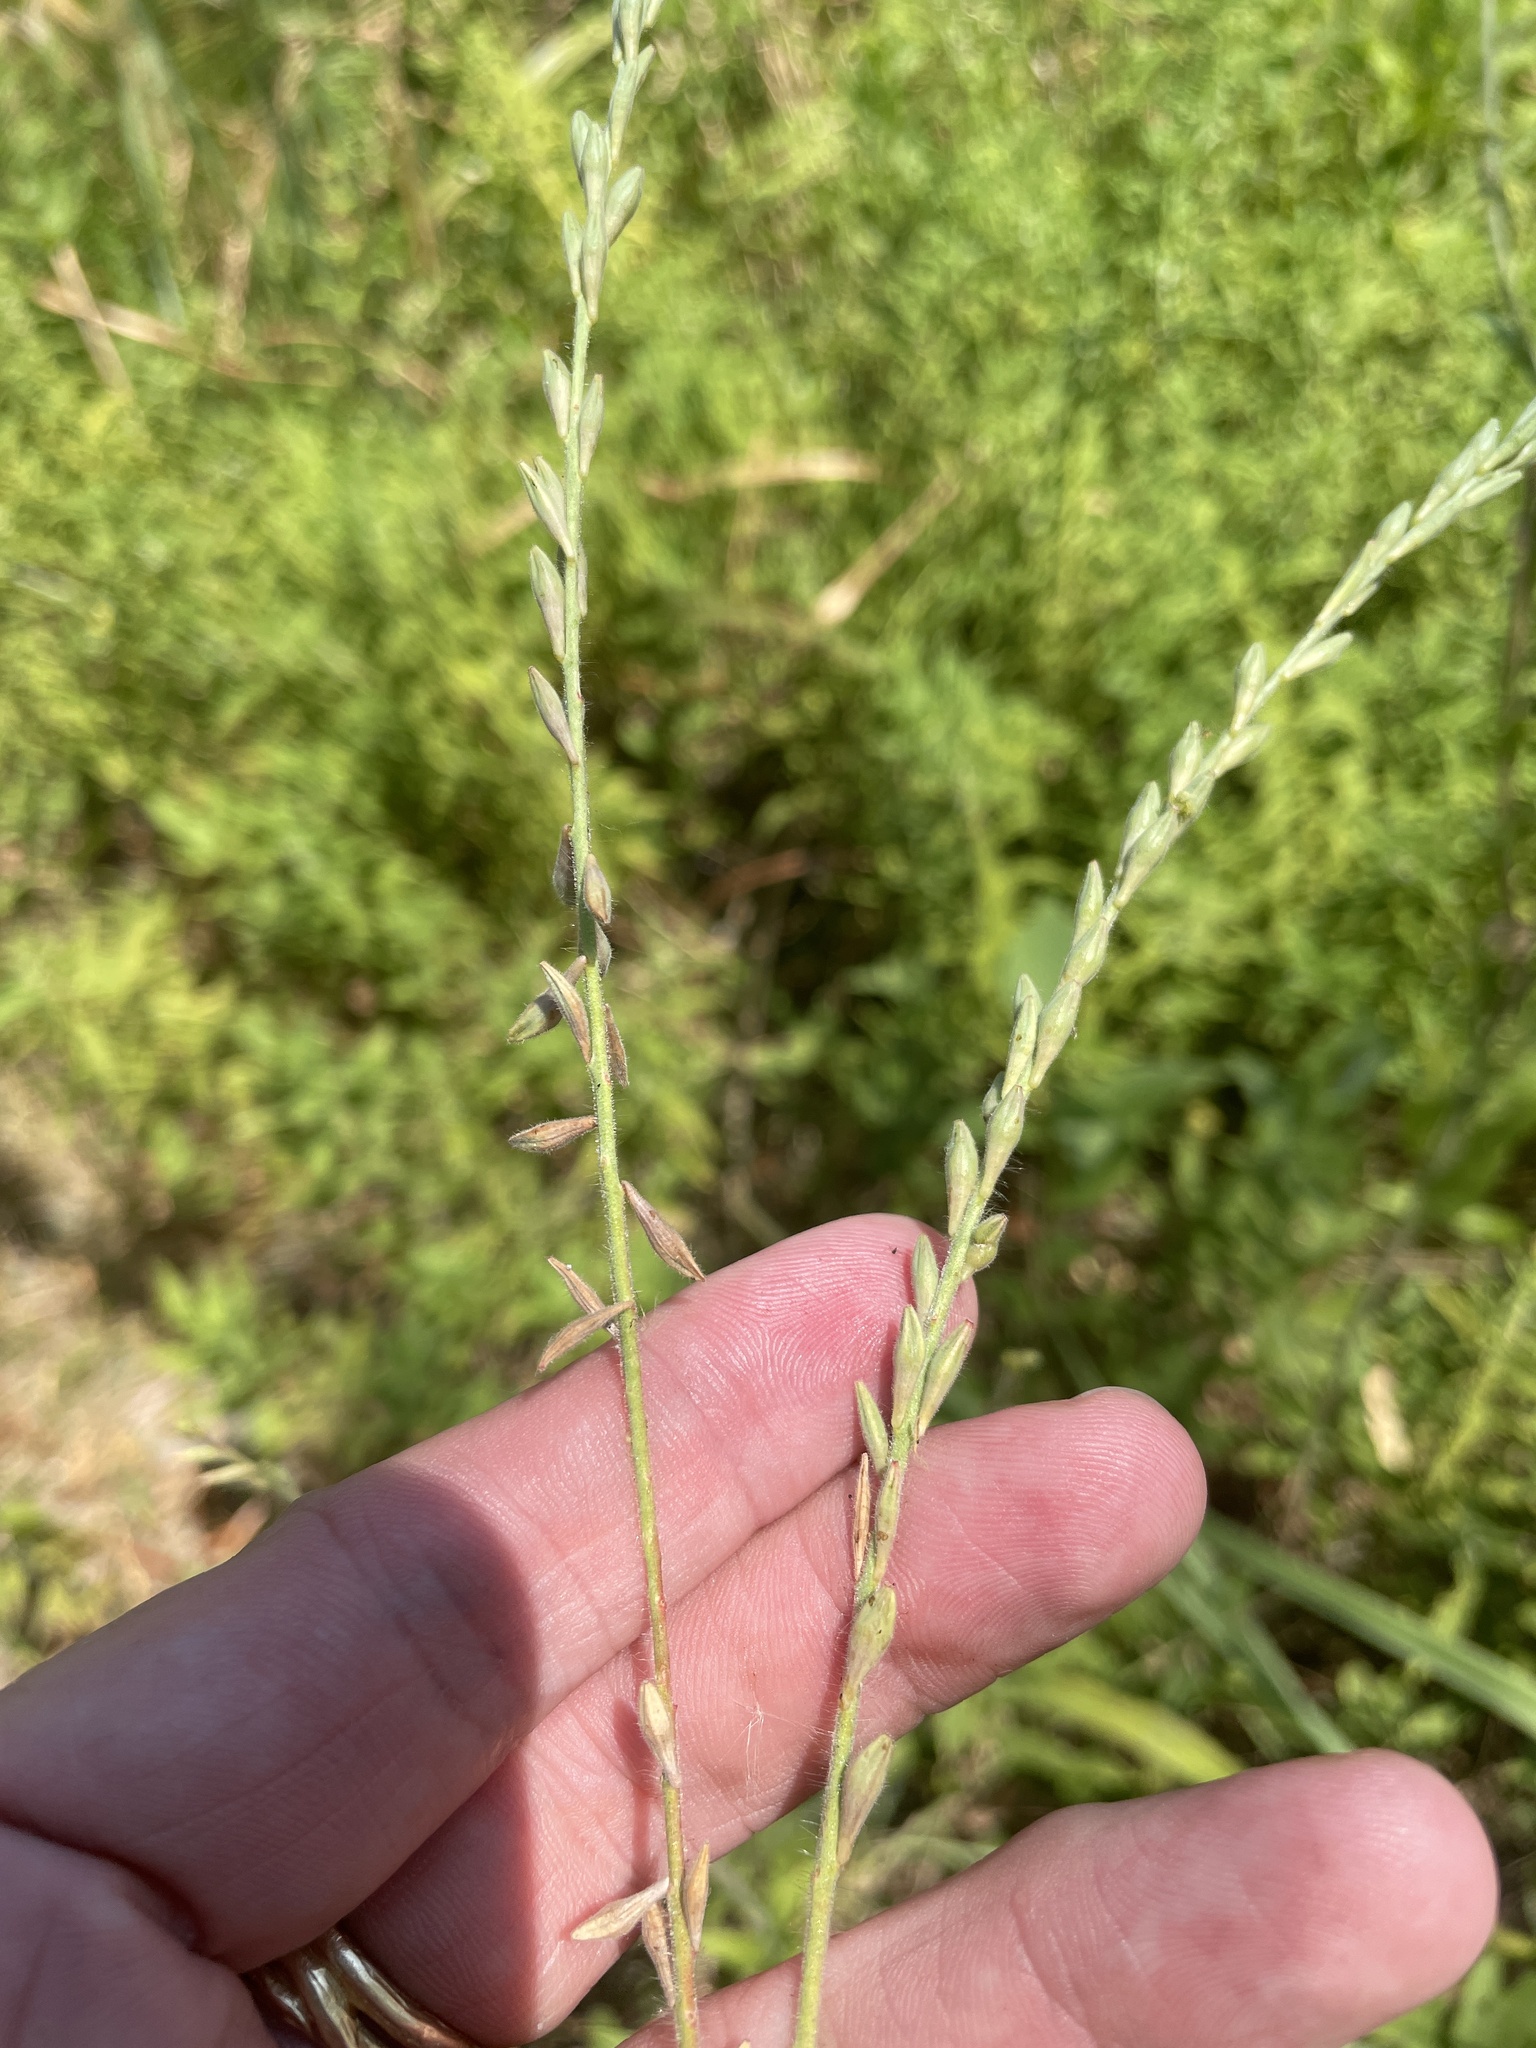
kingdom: Plantae
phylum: Tracheophyta
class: Magnoliopsida
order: Myrtales
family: Onagraceae
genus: Oenothera
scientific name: Oenothera curtiflora
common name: Velvetweed
